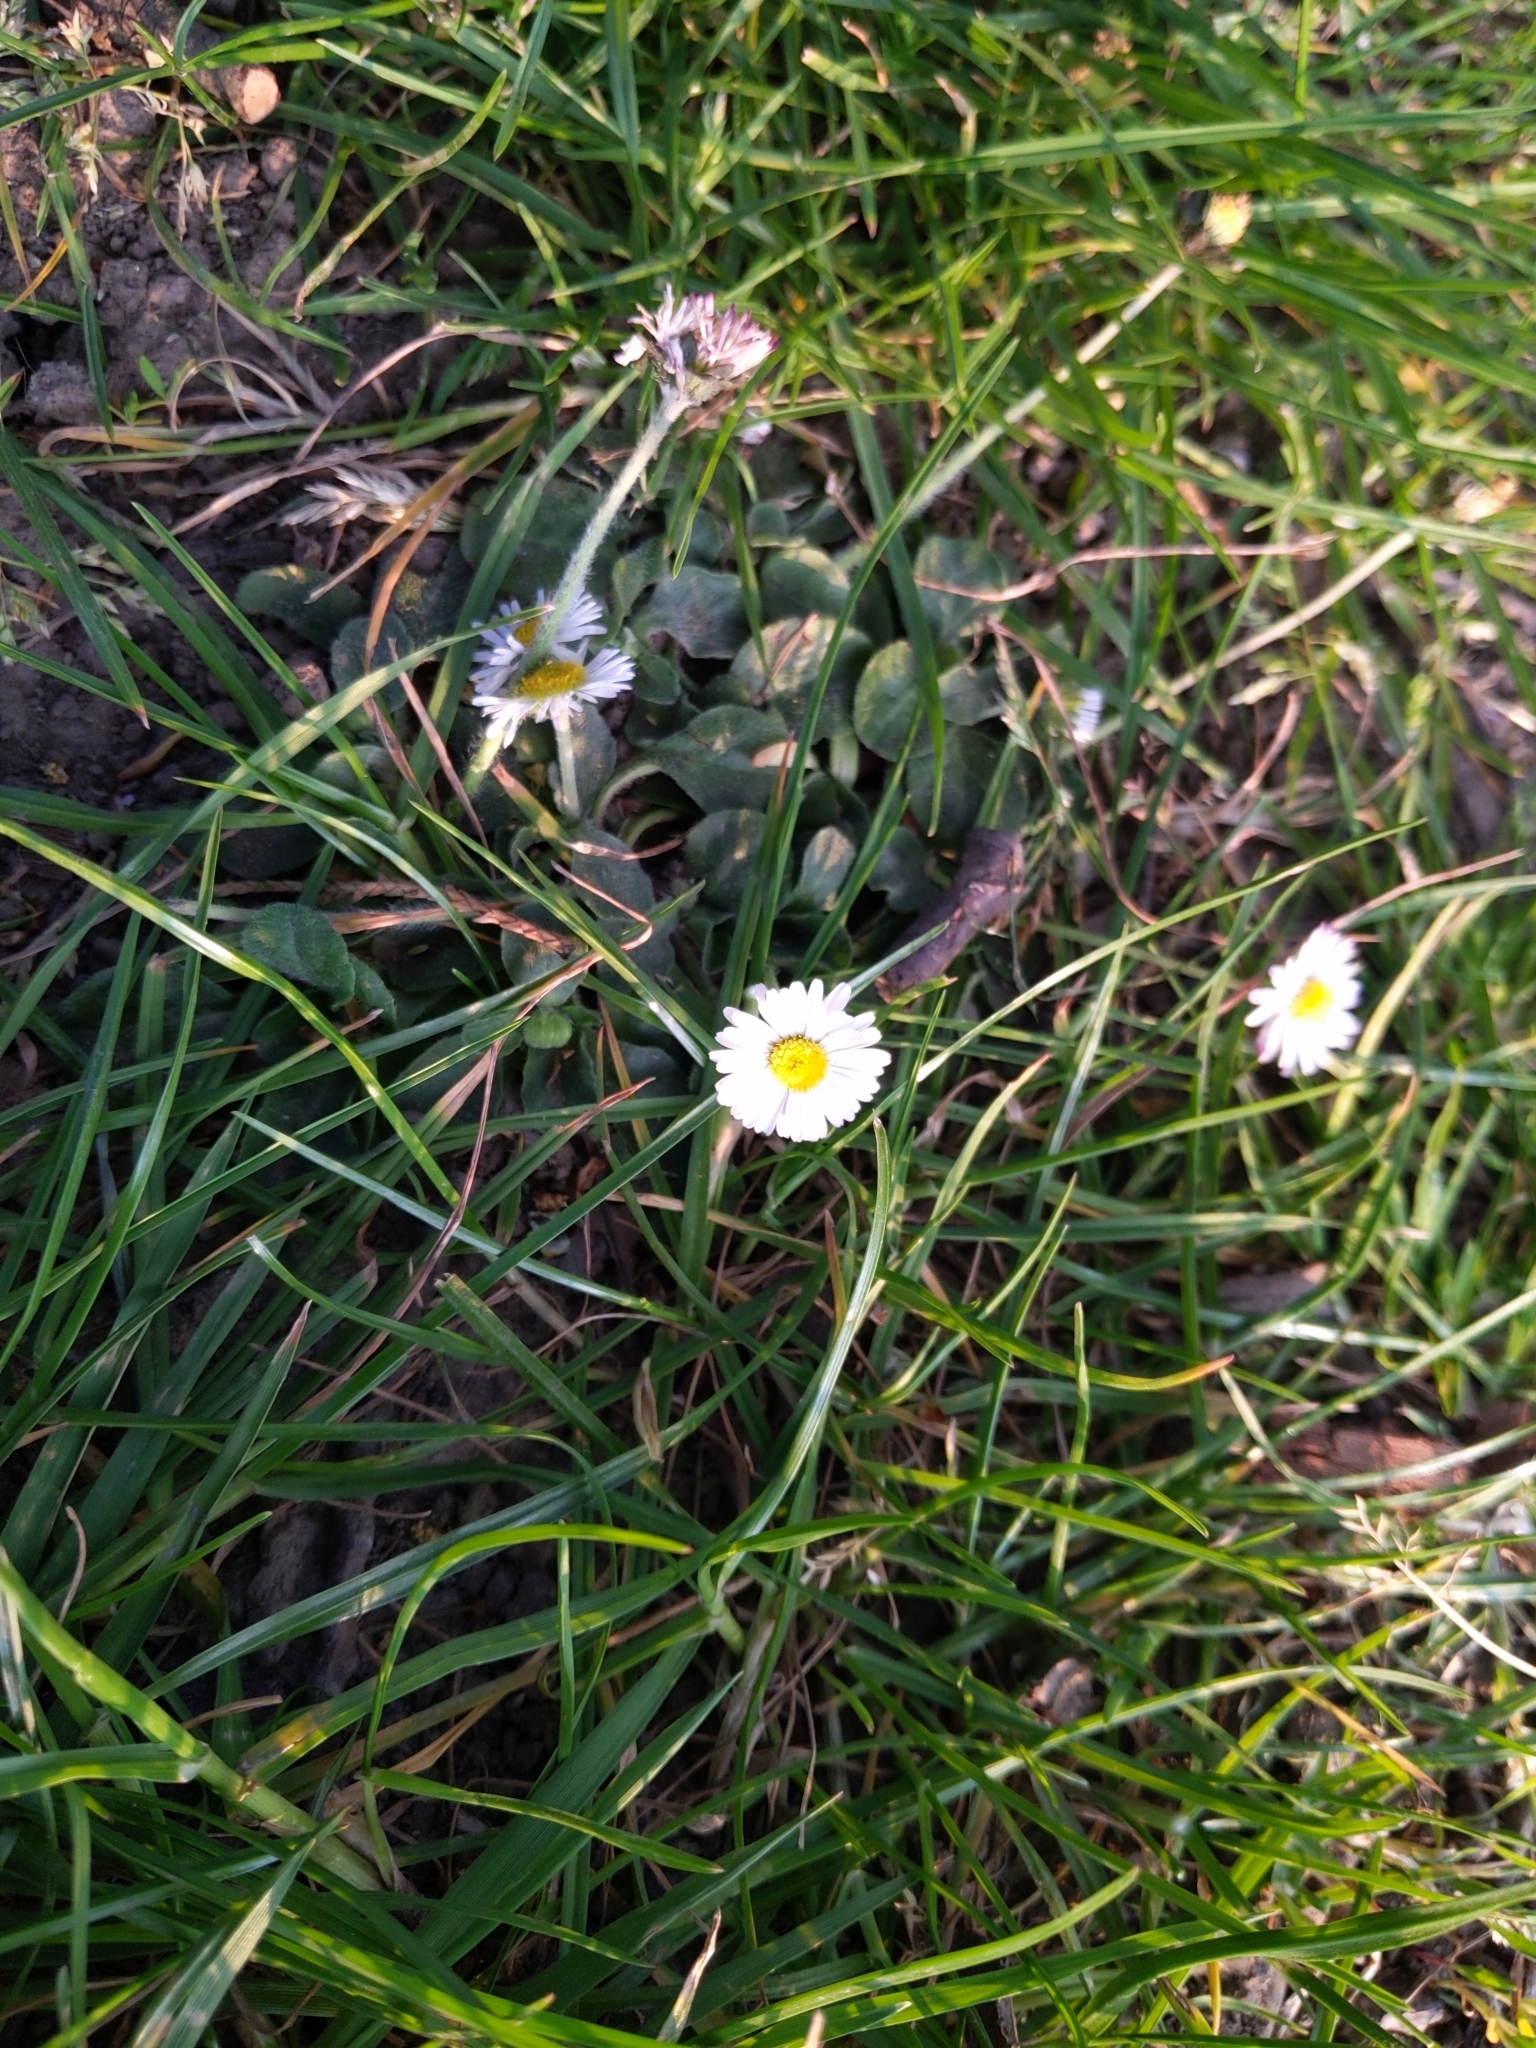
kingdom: Plantae
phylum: Tracheophyta
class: Magnoliopsida
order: Asterales
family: Asteraceae
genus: Bellis
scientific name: Bellis perennis
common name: Lawndaisy
